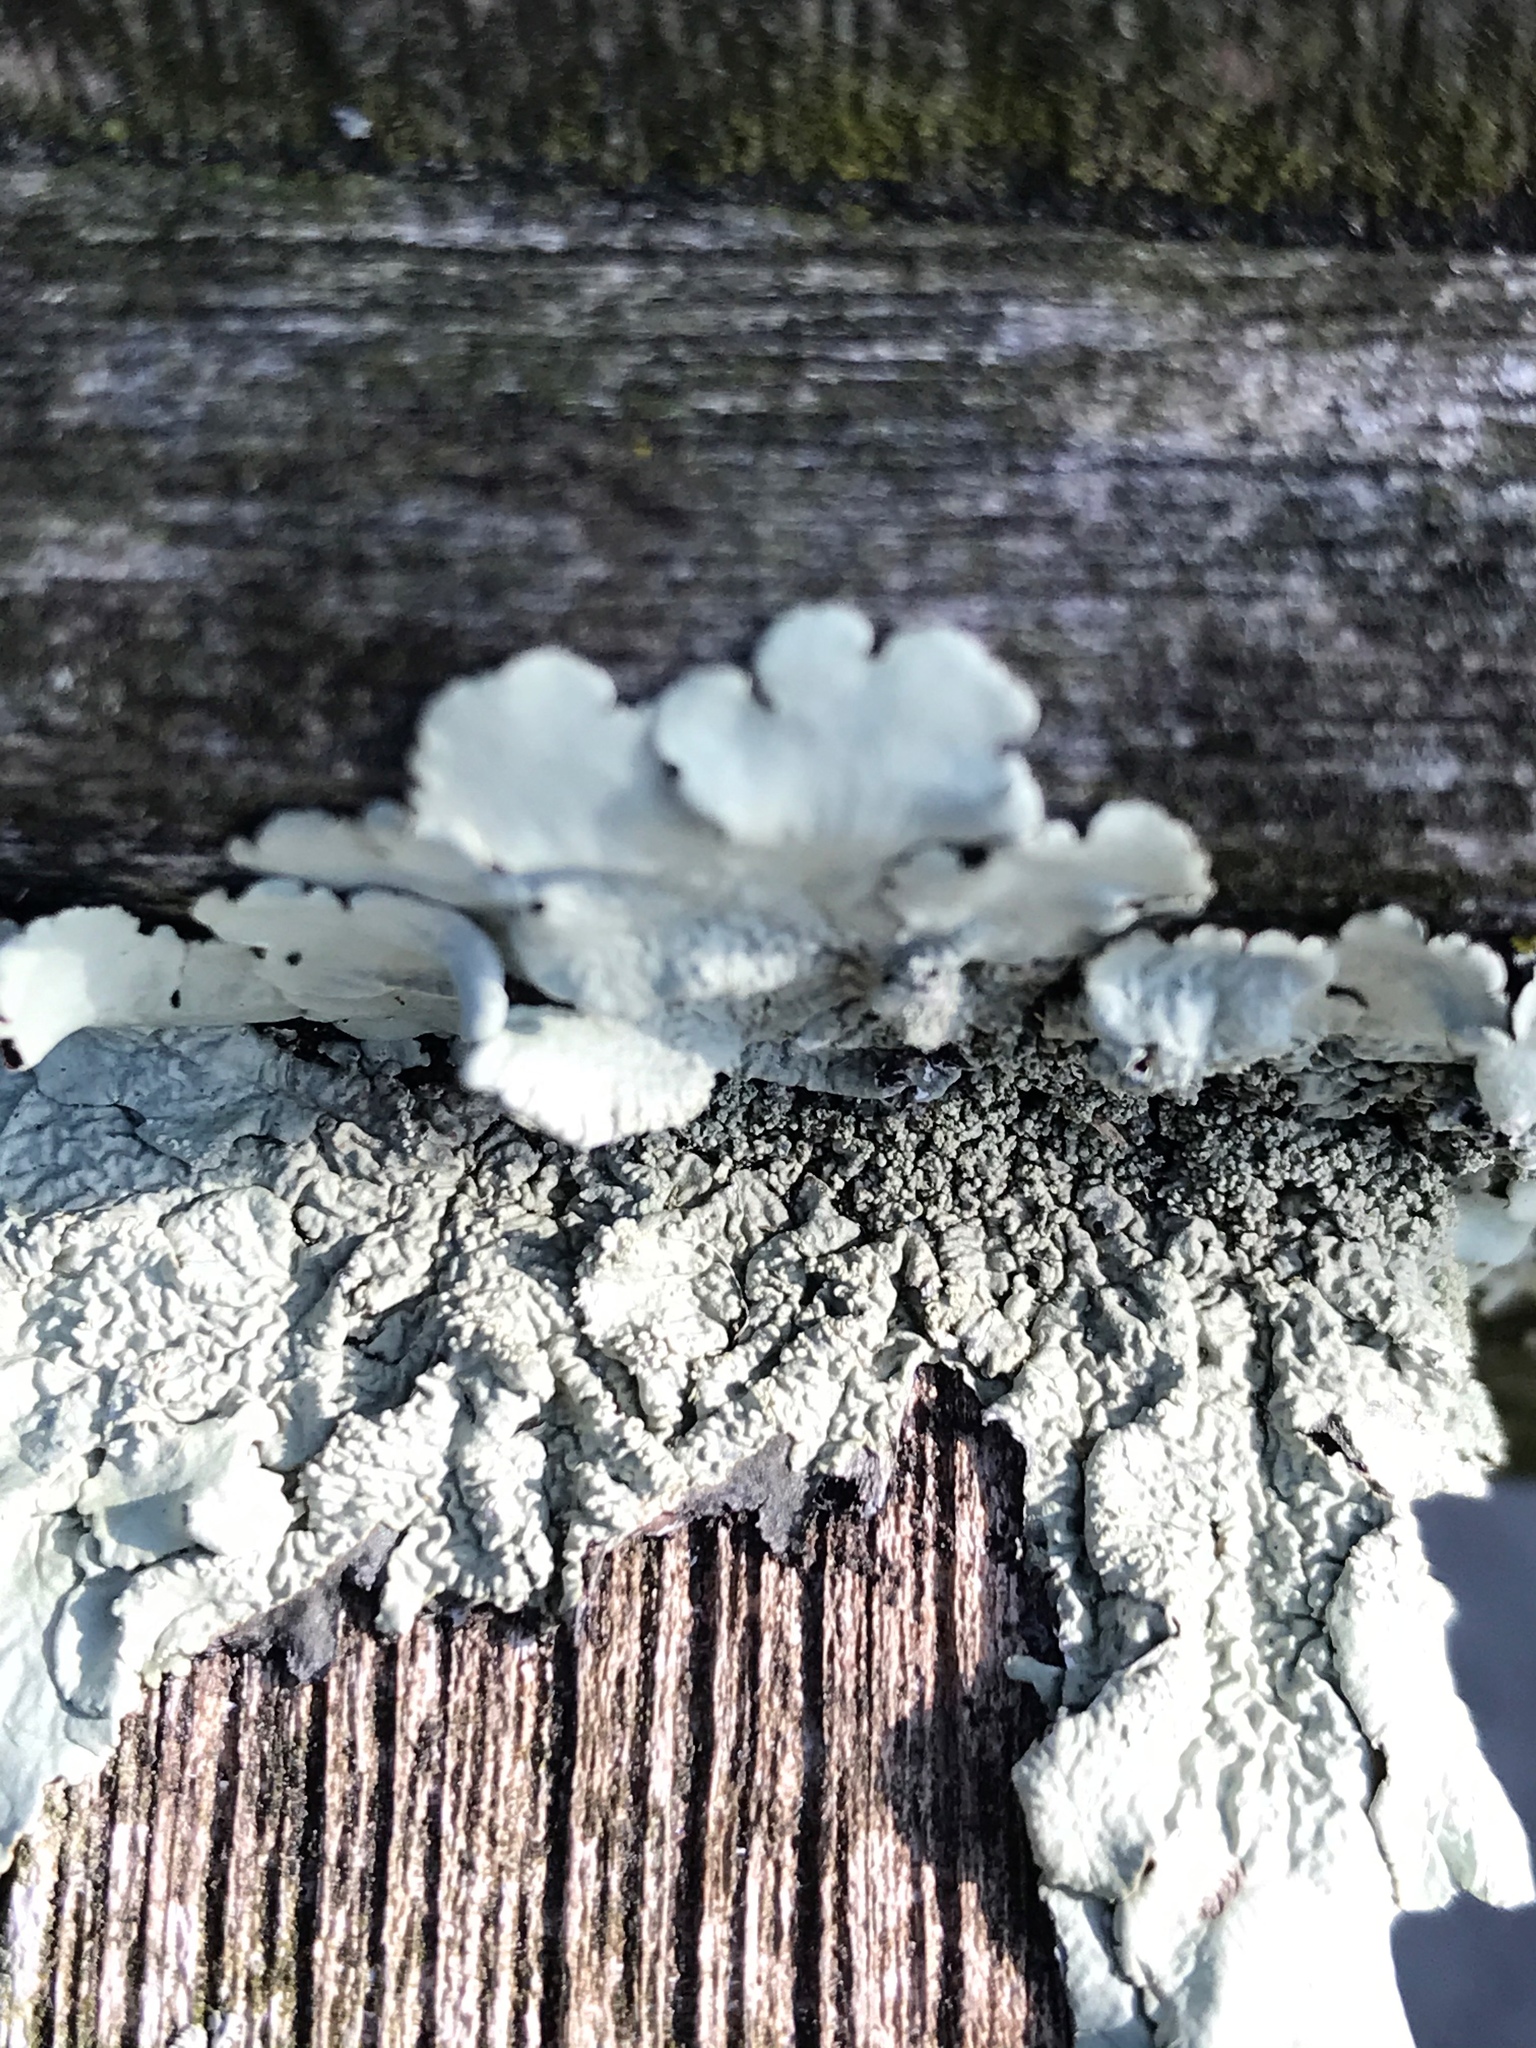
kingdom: Fungi
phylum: Ascomycota
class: Lecanoromycetes
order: Lecanorales
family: Parmeliaceae
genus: Flavoparmelia
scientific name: Flavoparmelia caperata
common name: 40-mile per hour lichen
